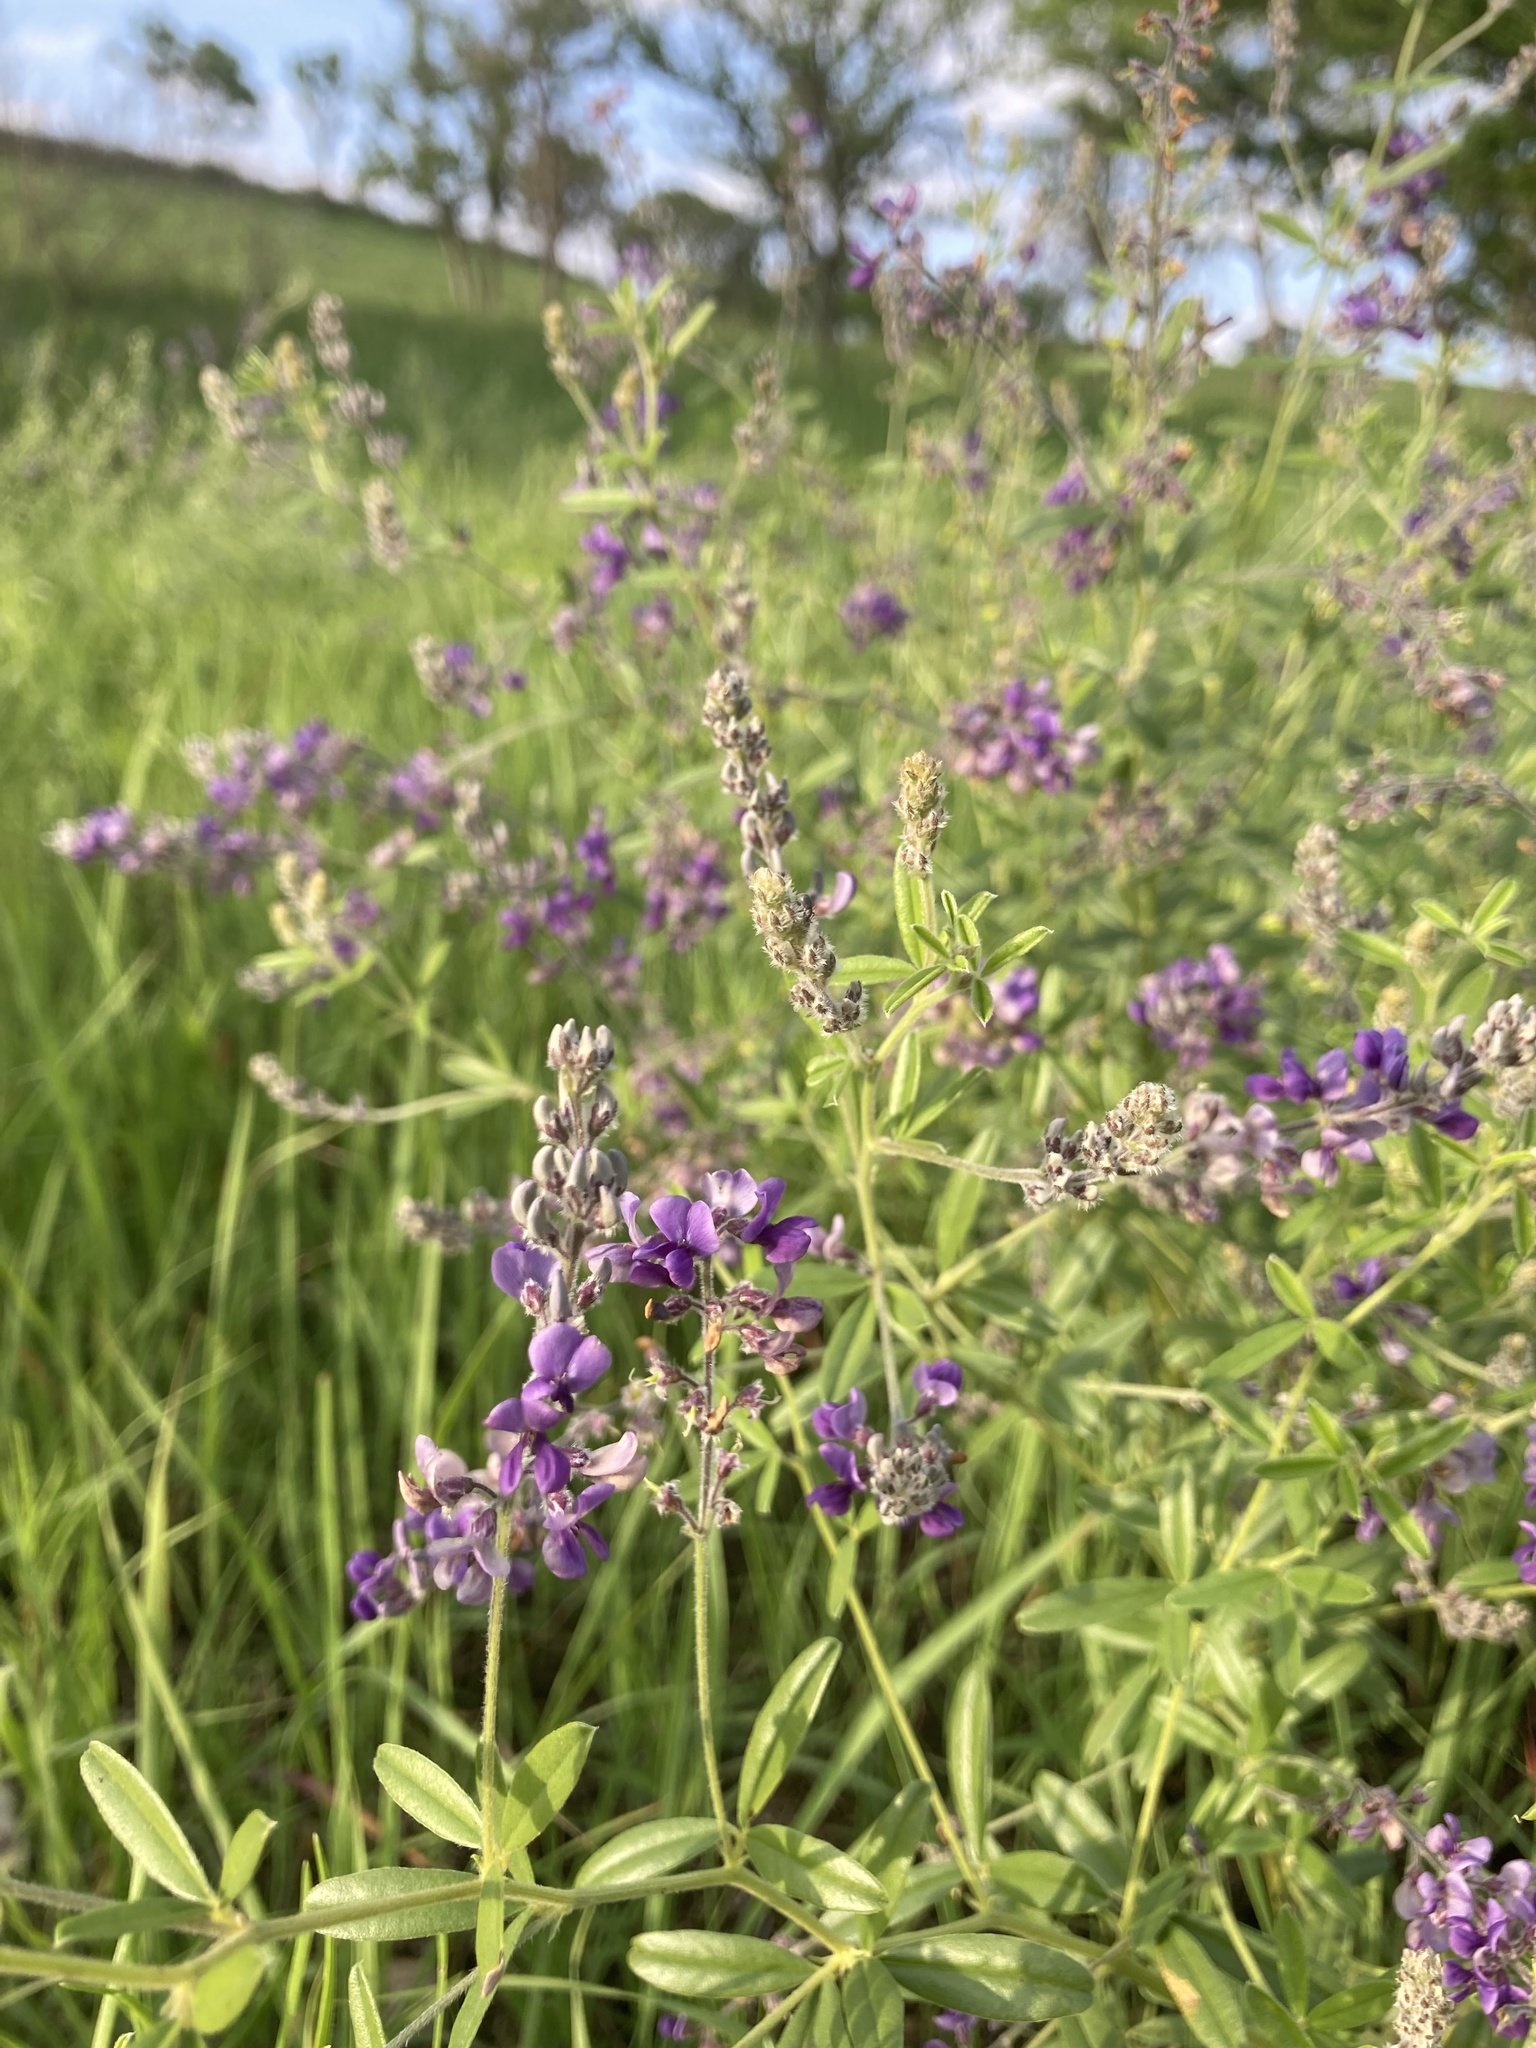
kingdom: Plantae
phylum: Tracheophyta
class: Magnoliopsida
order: Fabales
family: Fabaceae
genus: Pediomelum
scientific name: Pediomelum tenuiflorum
